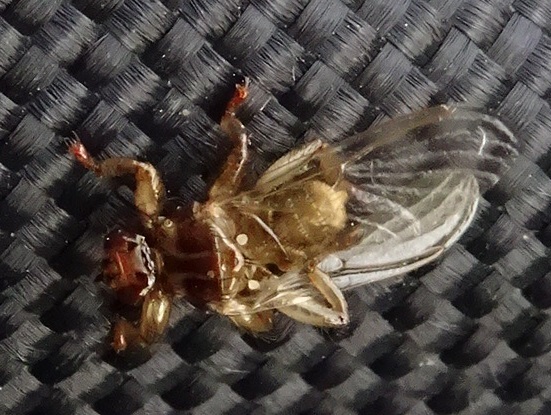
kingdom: Animalia
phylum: Arthropoda
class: Insecta
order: Diptera
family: Hippoboscidae
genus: Lipoptena
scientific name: Lipoptena cervi
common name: Deer ked
